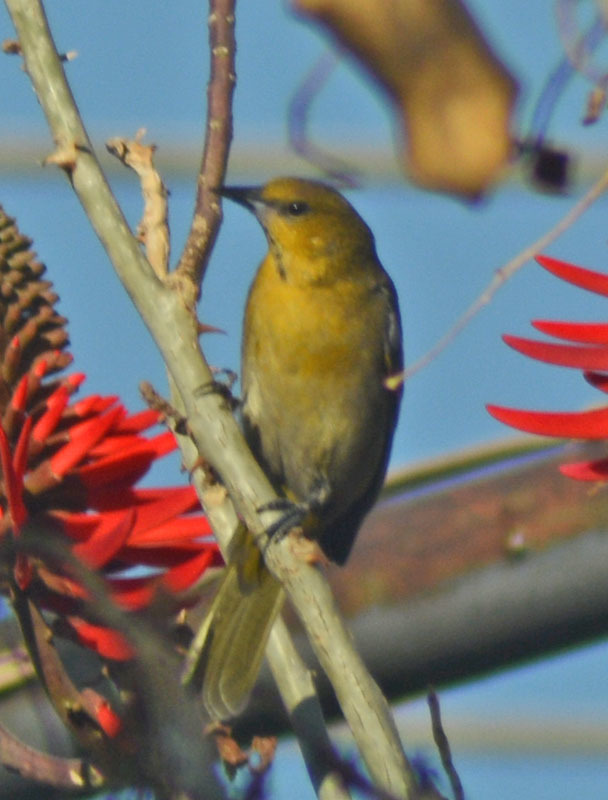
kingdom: Animalia
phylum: Chordata
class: Aves
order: Passeriformes
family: Icteridae
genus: Icterus
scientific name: Icterus cucullatus
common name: Hooded oriole
